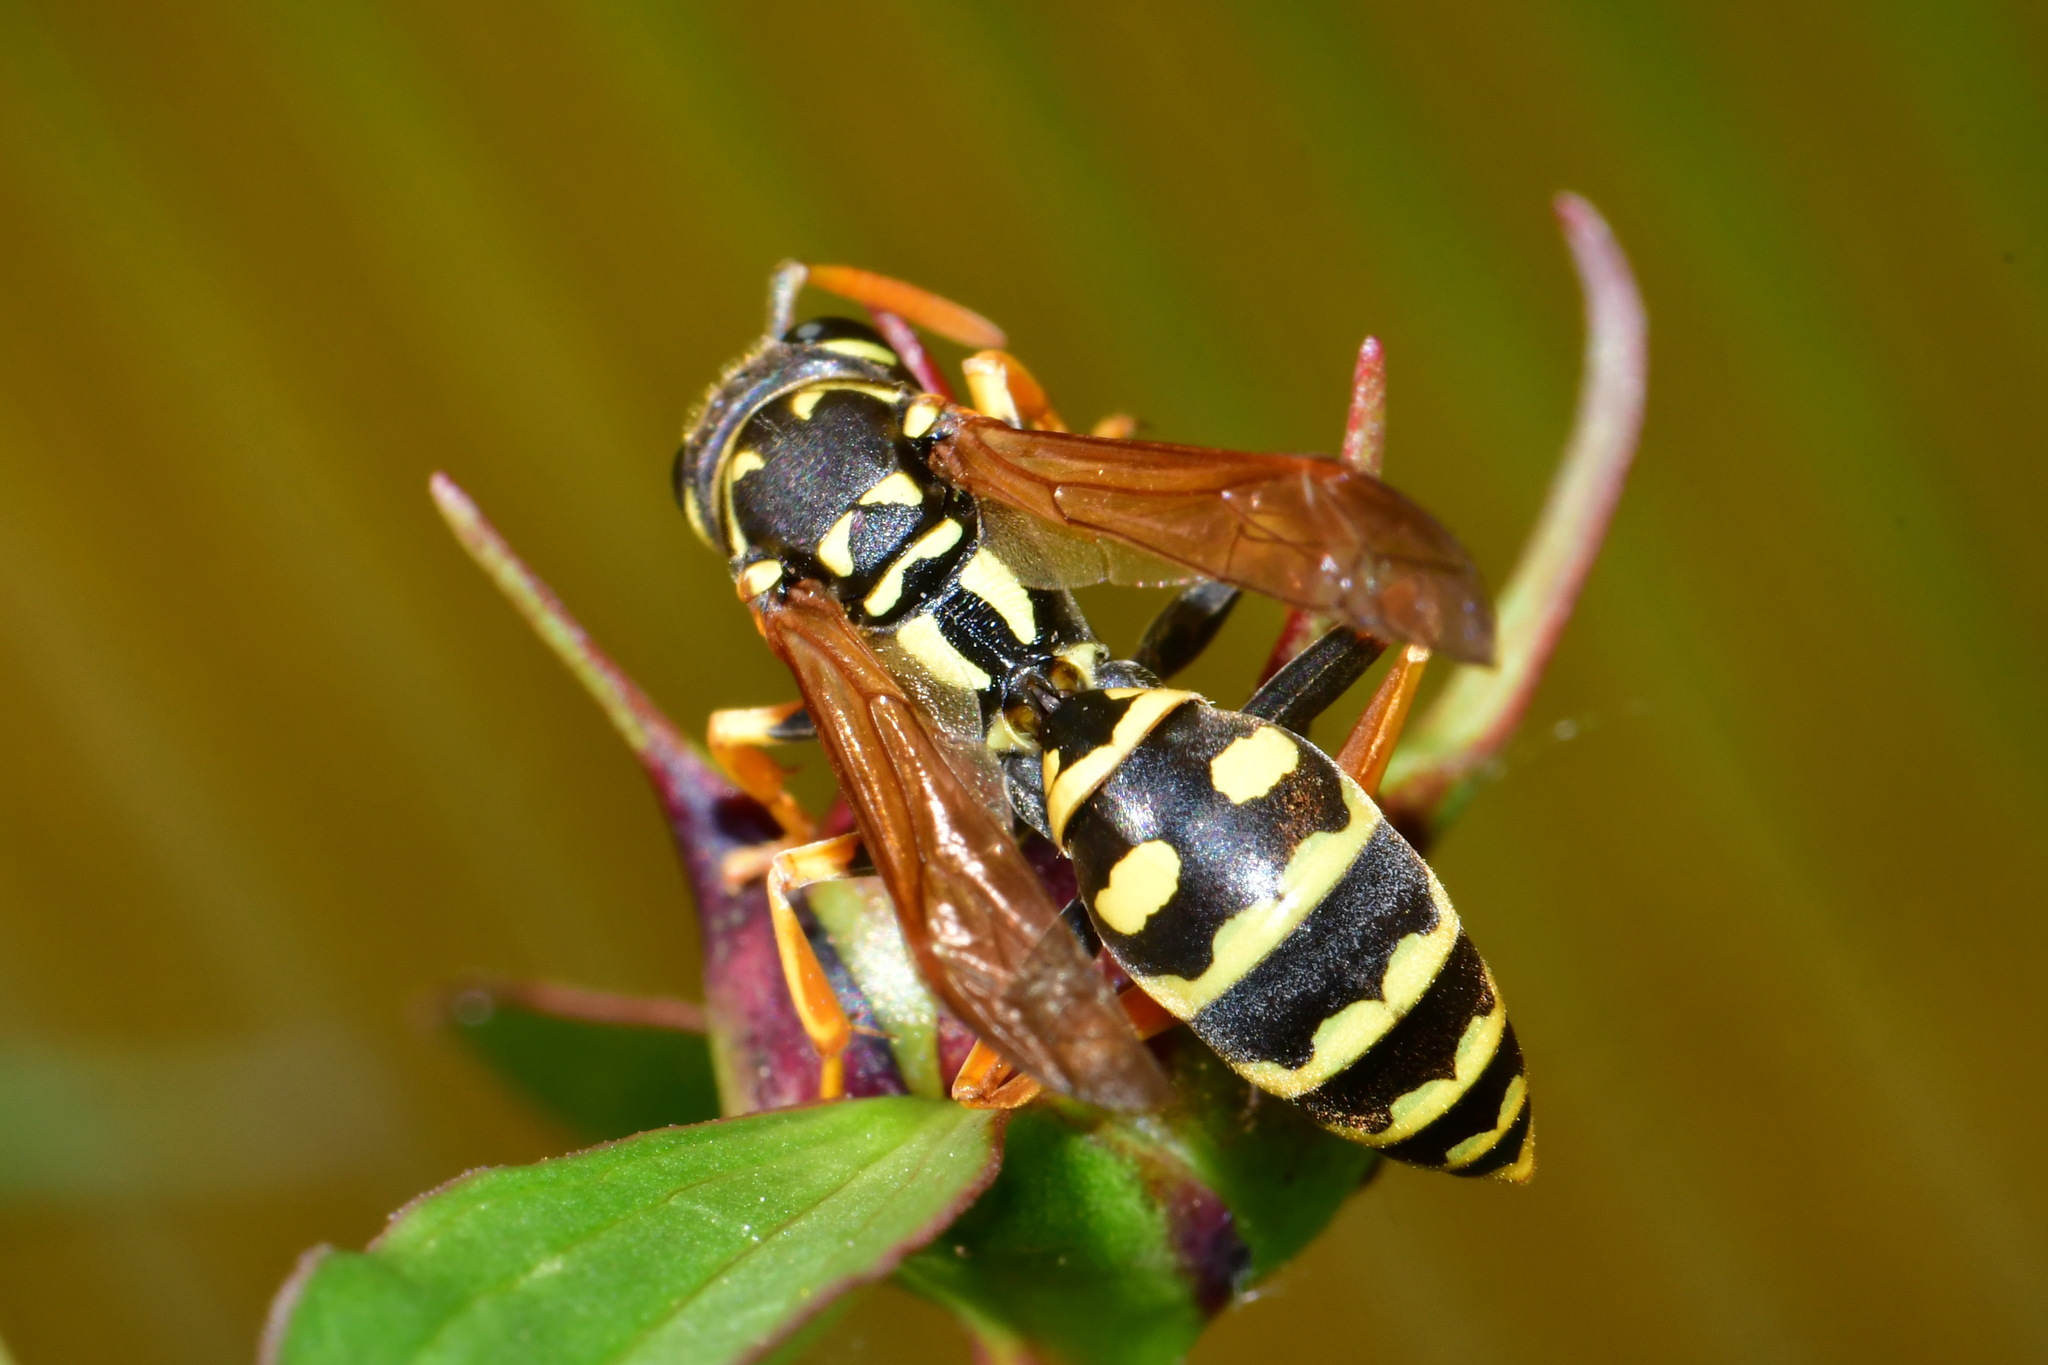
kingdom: Animalia
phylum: Arthropoda
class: Insecta
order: Hymenoptera
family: Eumenidae
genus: Polistes
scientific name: Polistes dominula
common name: Paper wasp
